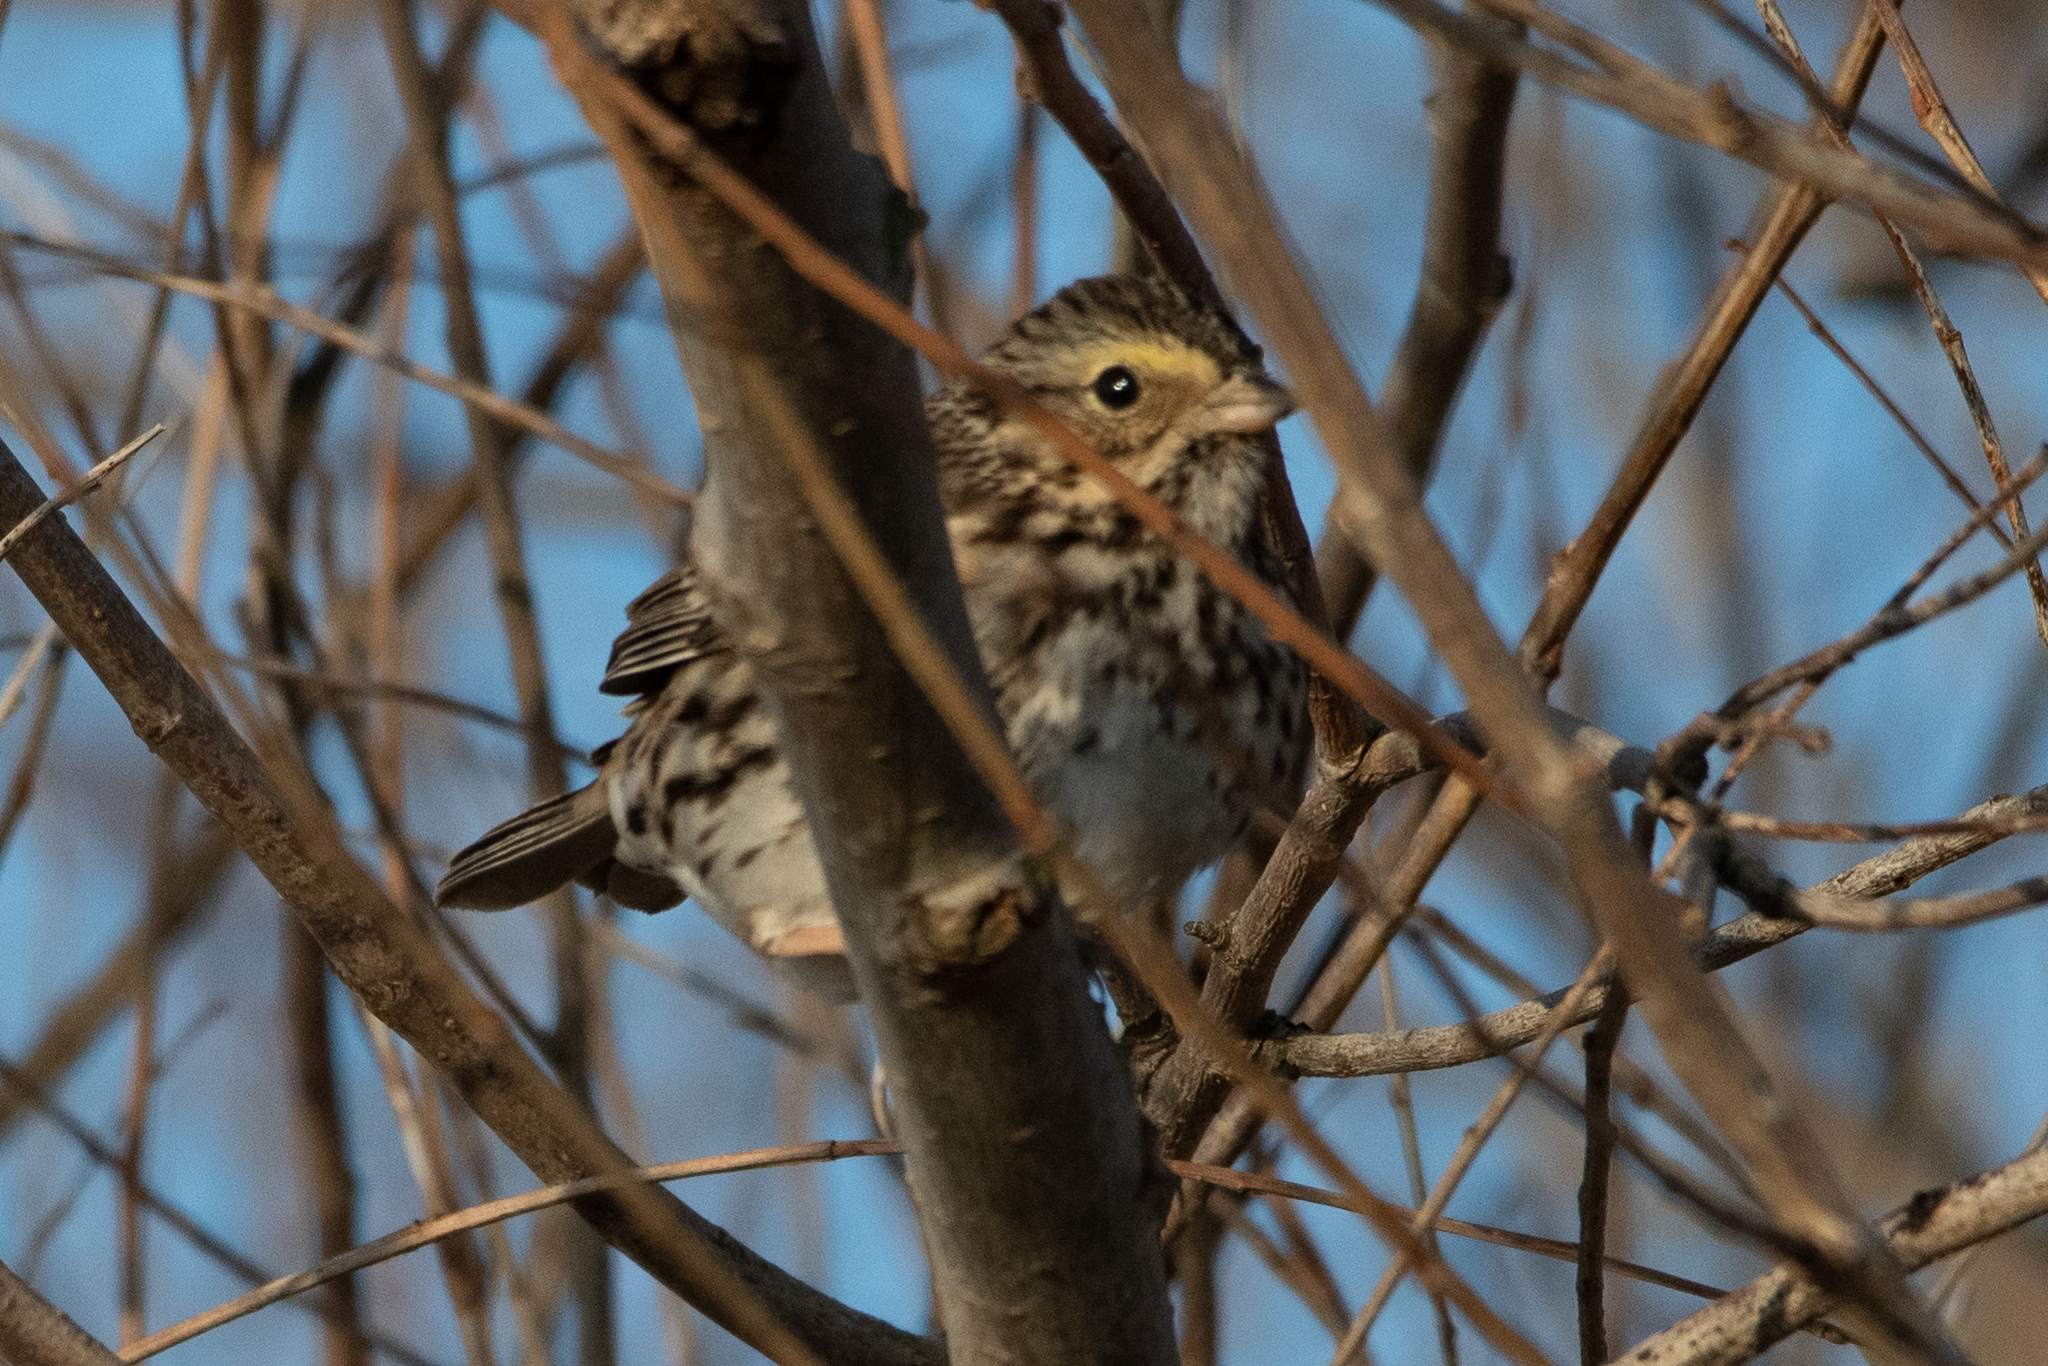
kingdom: Animalia
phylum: Chordata
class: Aves
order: Passeriformes
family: Passerellidae
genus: Passerculus
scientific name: Passerculus sandwichensis
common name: Savannah sparrow
